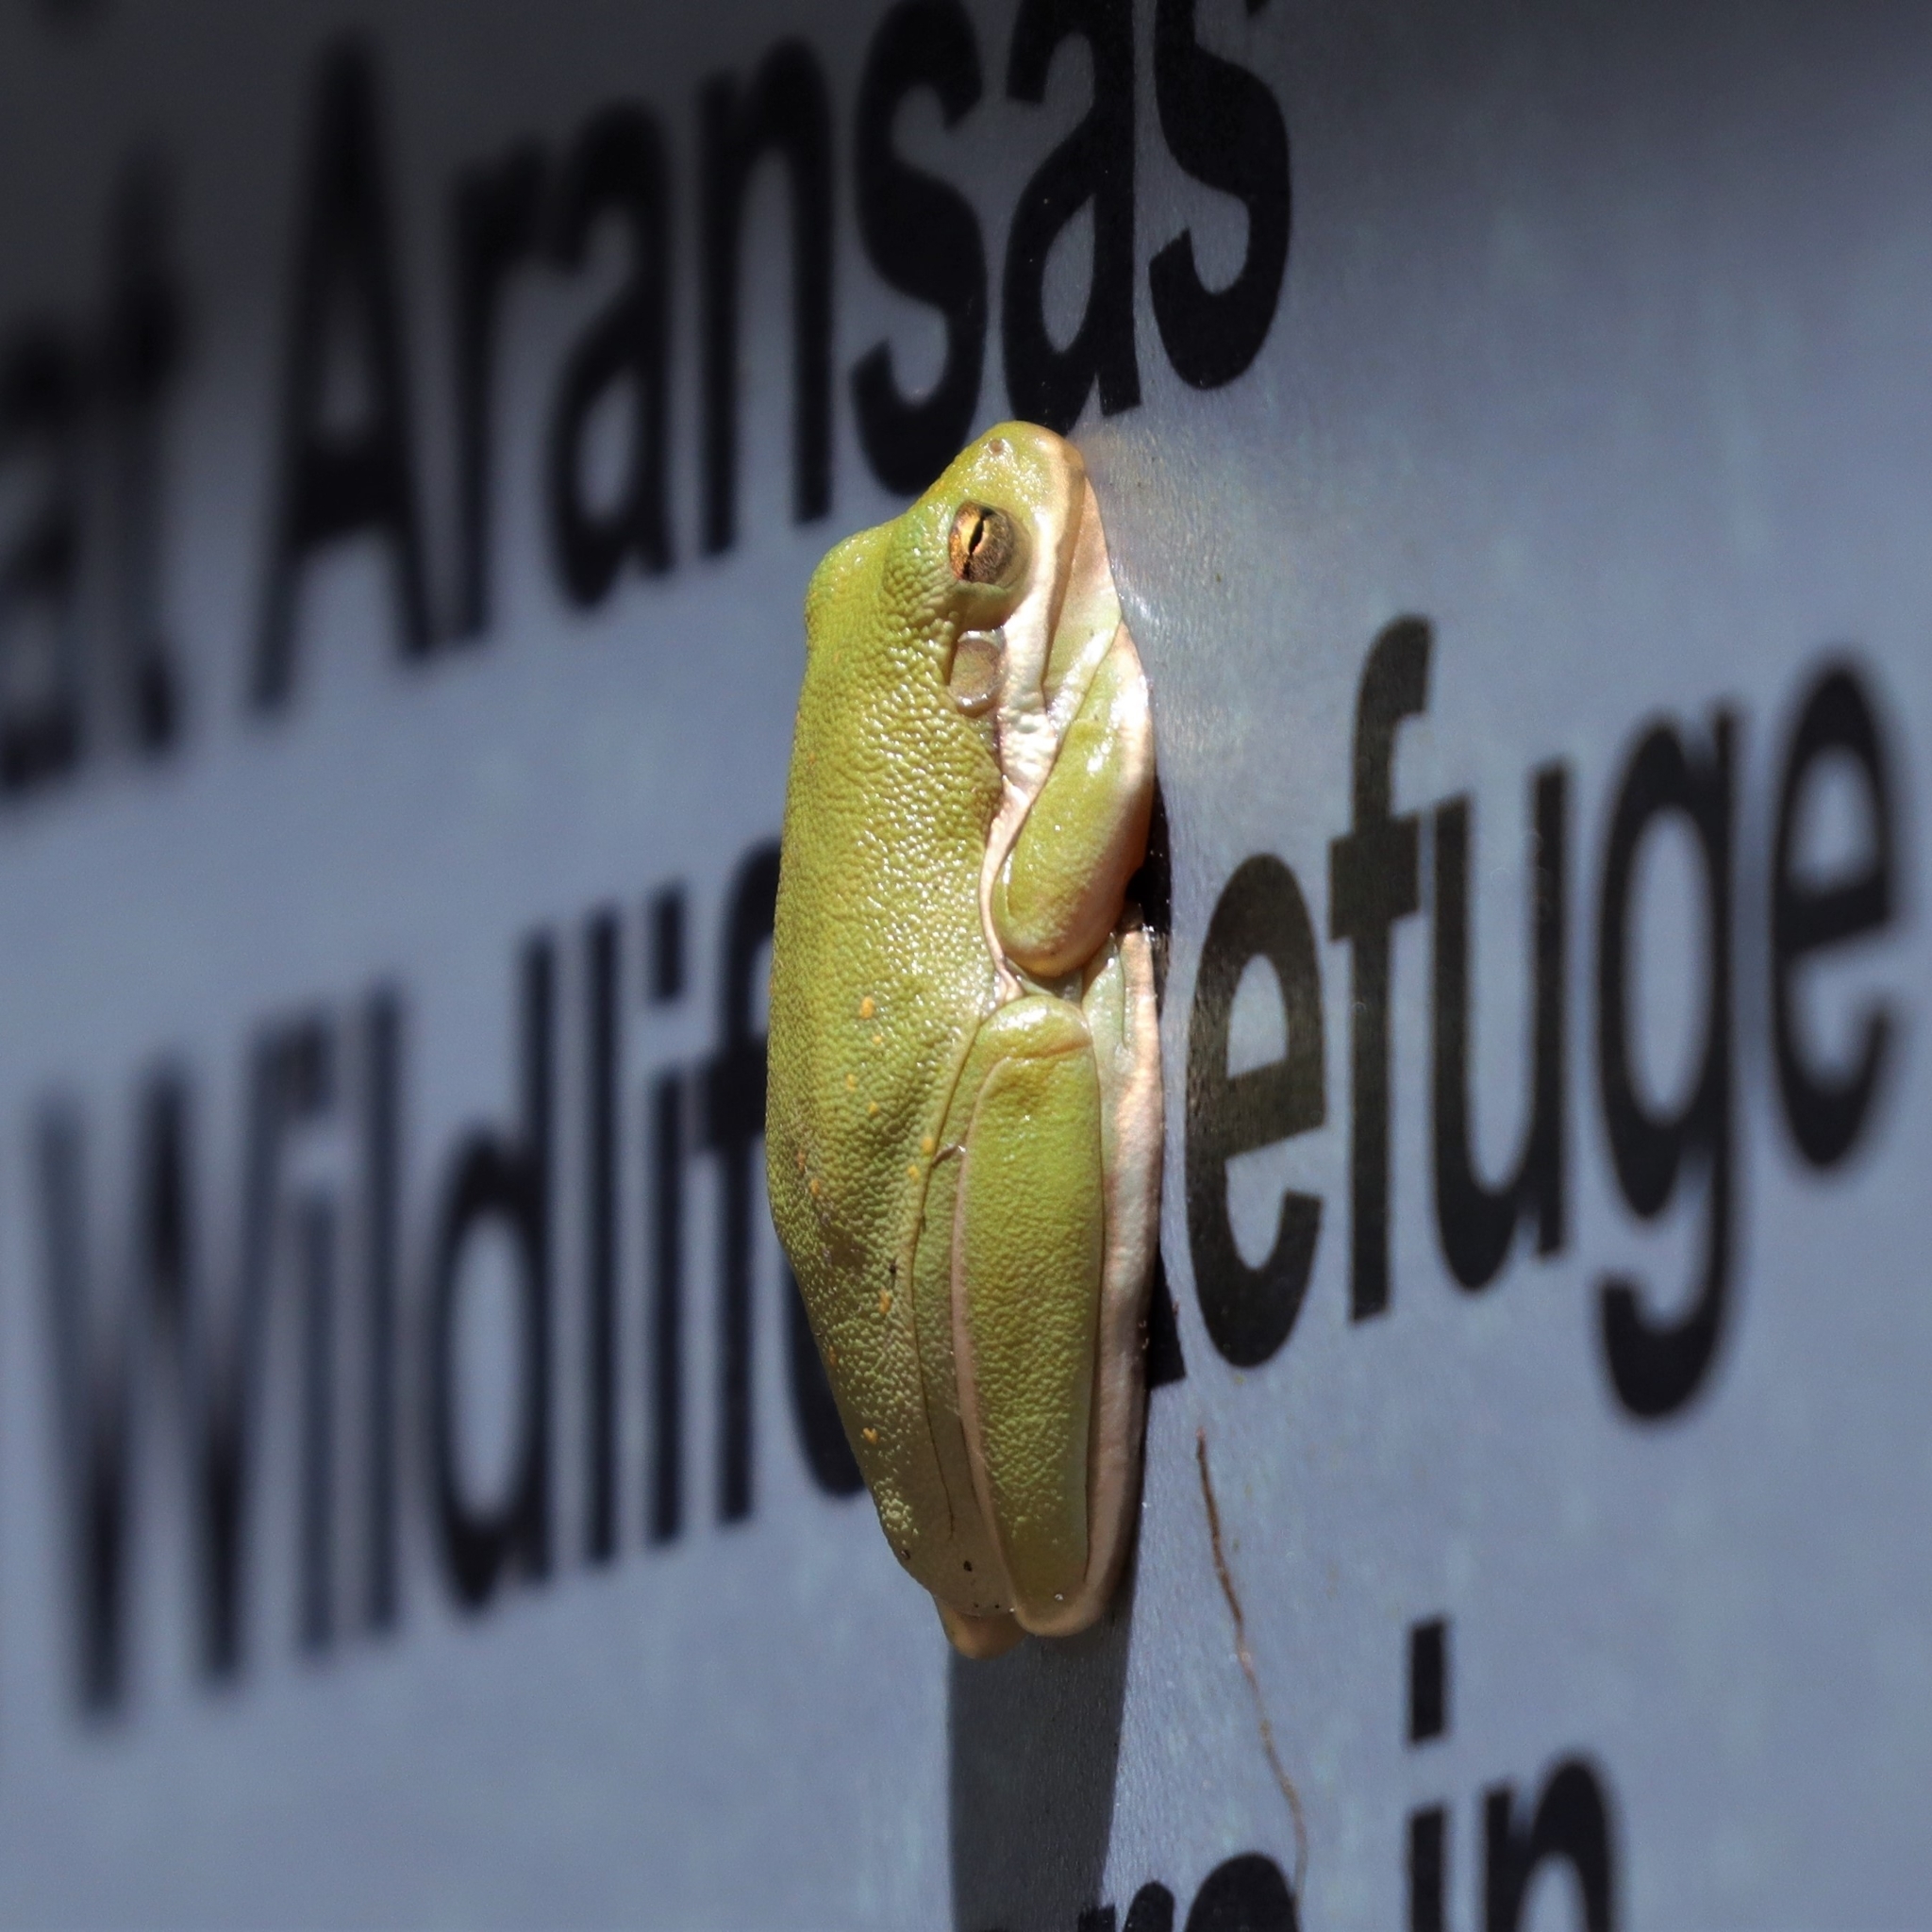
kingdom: Animalia
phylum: Chordata
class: Amphibia
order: Anura
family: Hylidae
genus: Dryophytes
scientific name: Dryophytes cinereus
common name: Green treefrog
